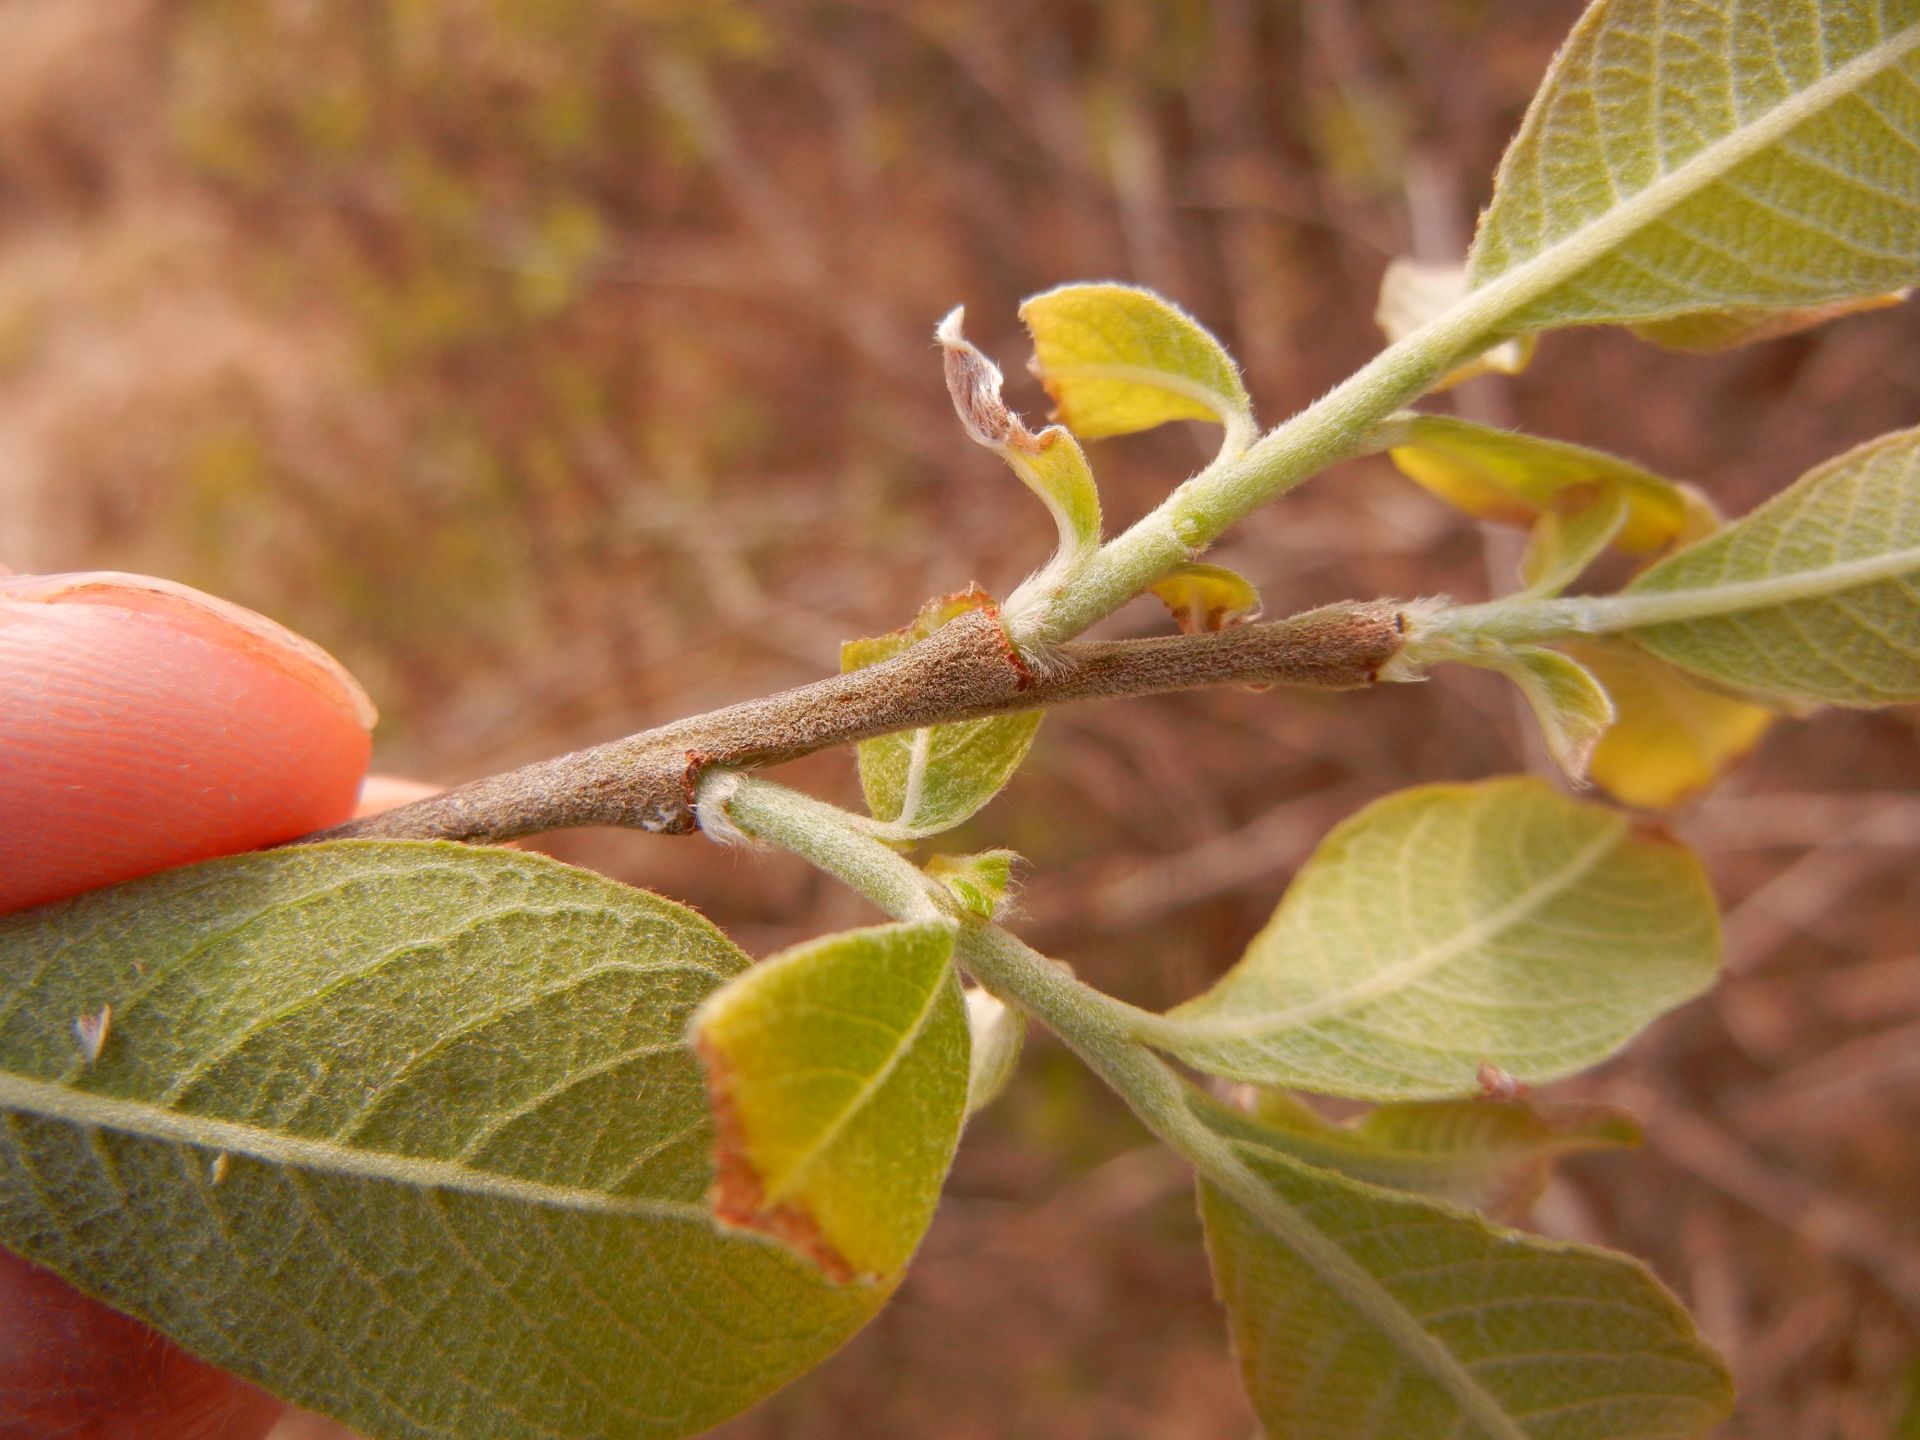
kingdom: Plantae
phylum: Tracheophyta
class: Magnoliopsida
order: Malpighiales
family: Salicaceae
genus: Salix
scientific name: Salix cinerea
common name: Common sallow
